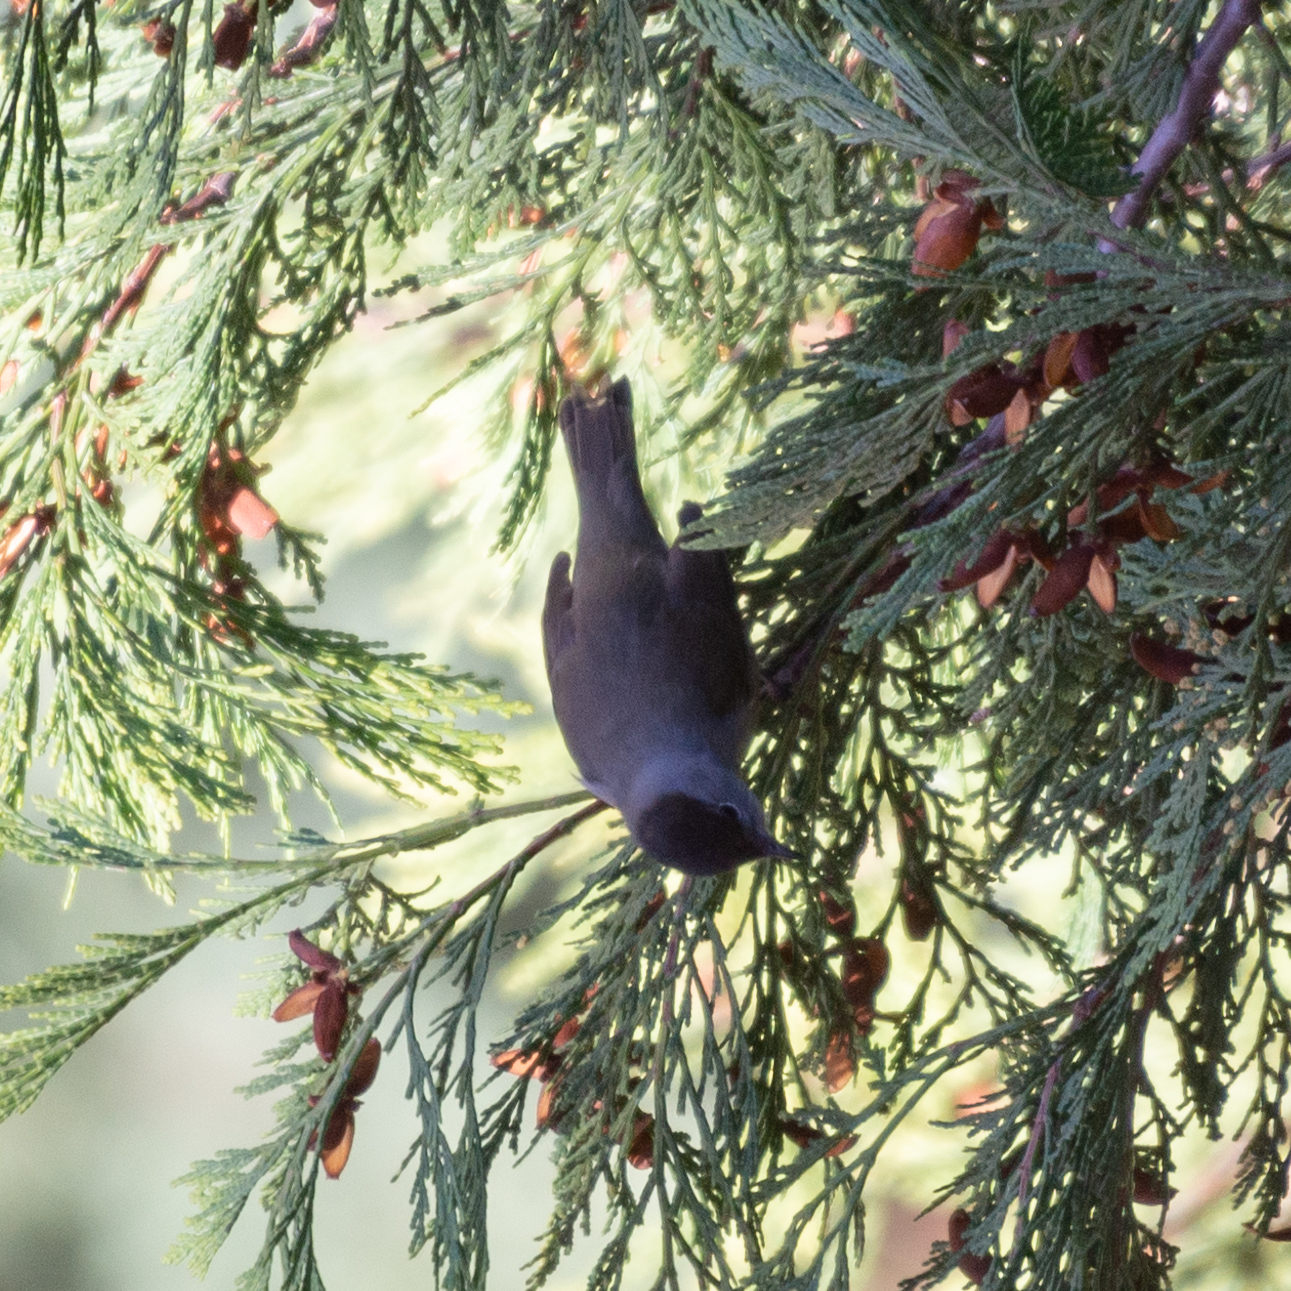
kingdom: Animalia
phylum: Chordata
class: Aves
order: Passeriformes
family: Sylviidae
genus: Sylvia
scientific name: Sylvia atricapilla
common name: Eurasian blackcap
